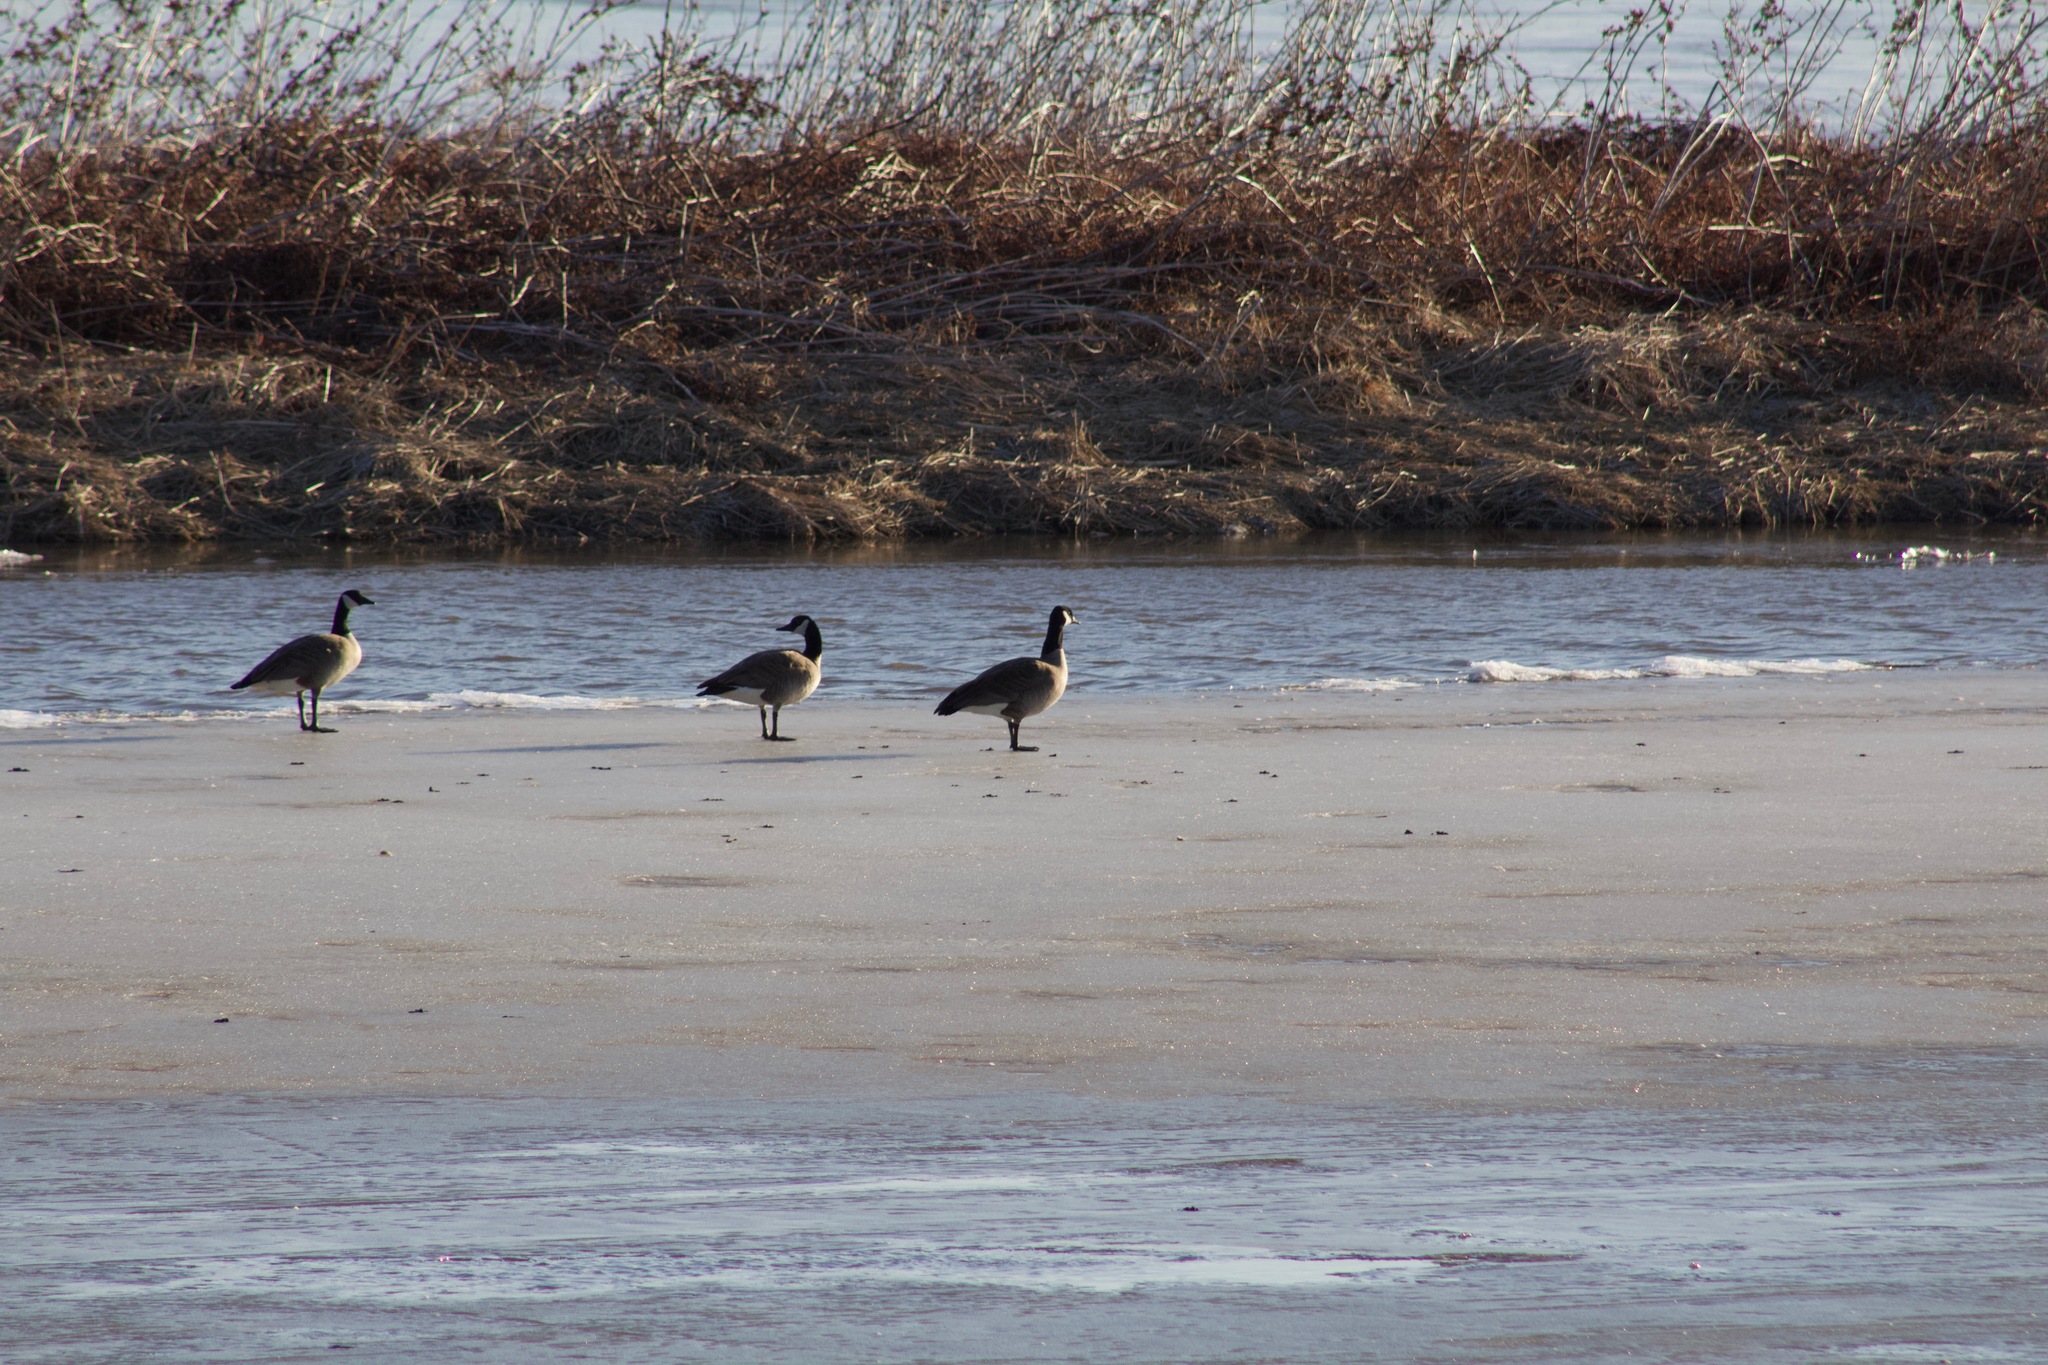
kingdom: Animalia
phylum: Chordata
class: Aves
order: Anseriformes
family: Anatidae
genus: Branta
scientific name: Branta canadensis
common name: Canada goose
